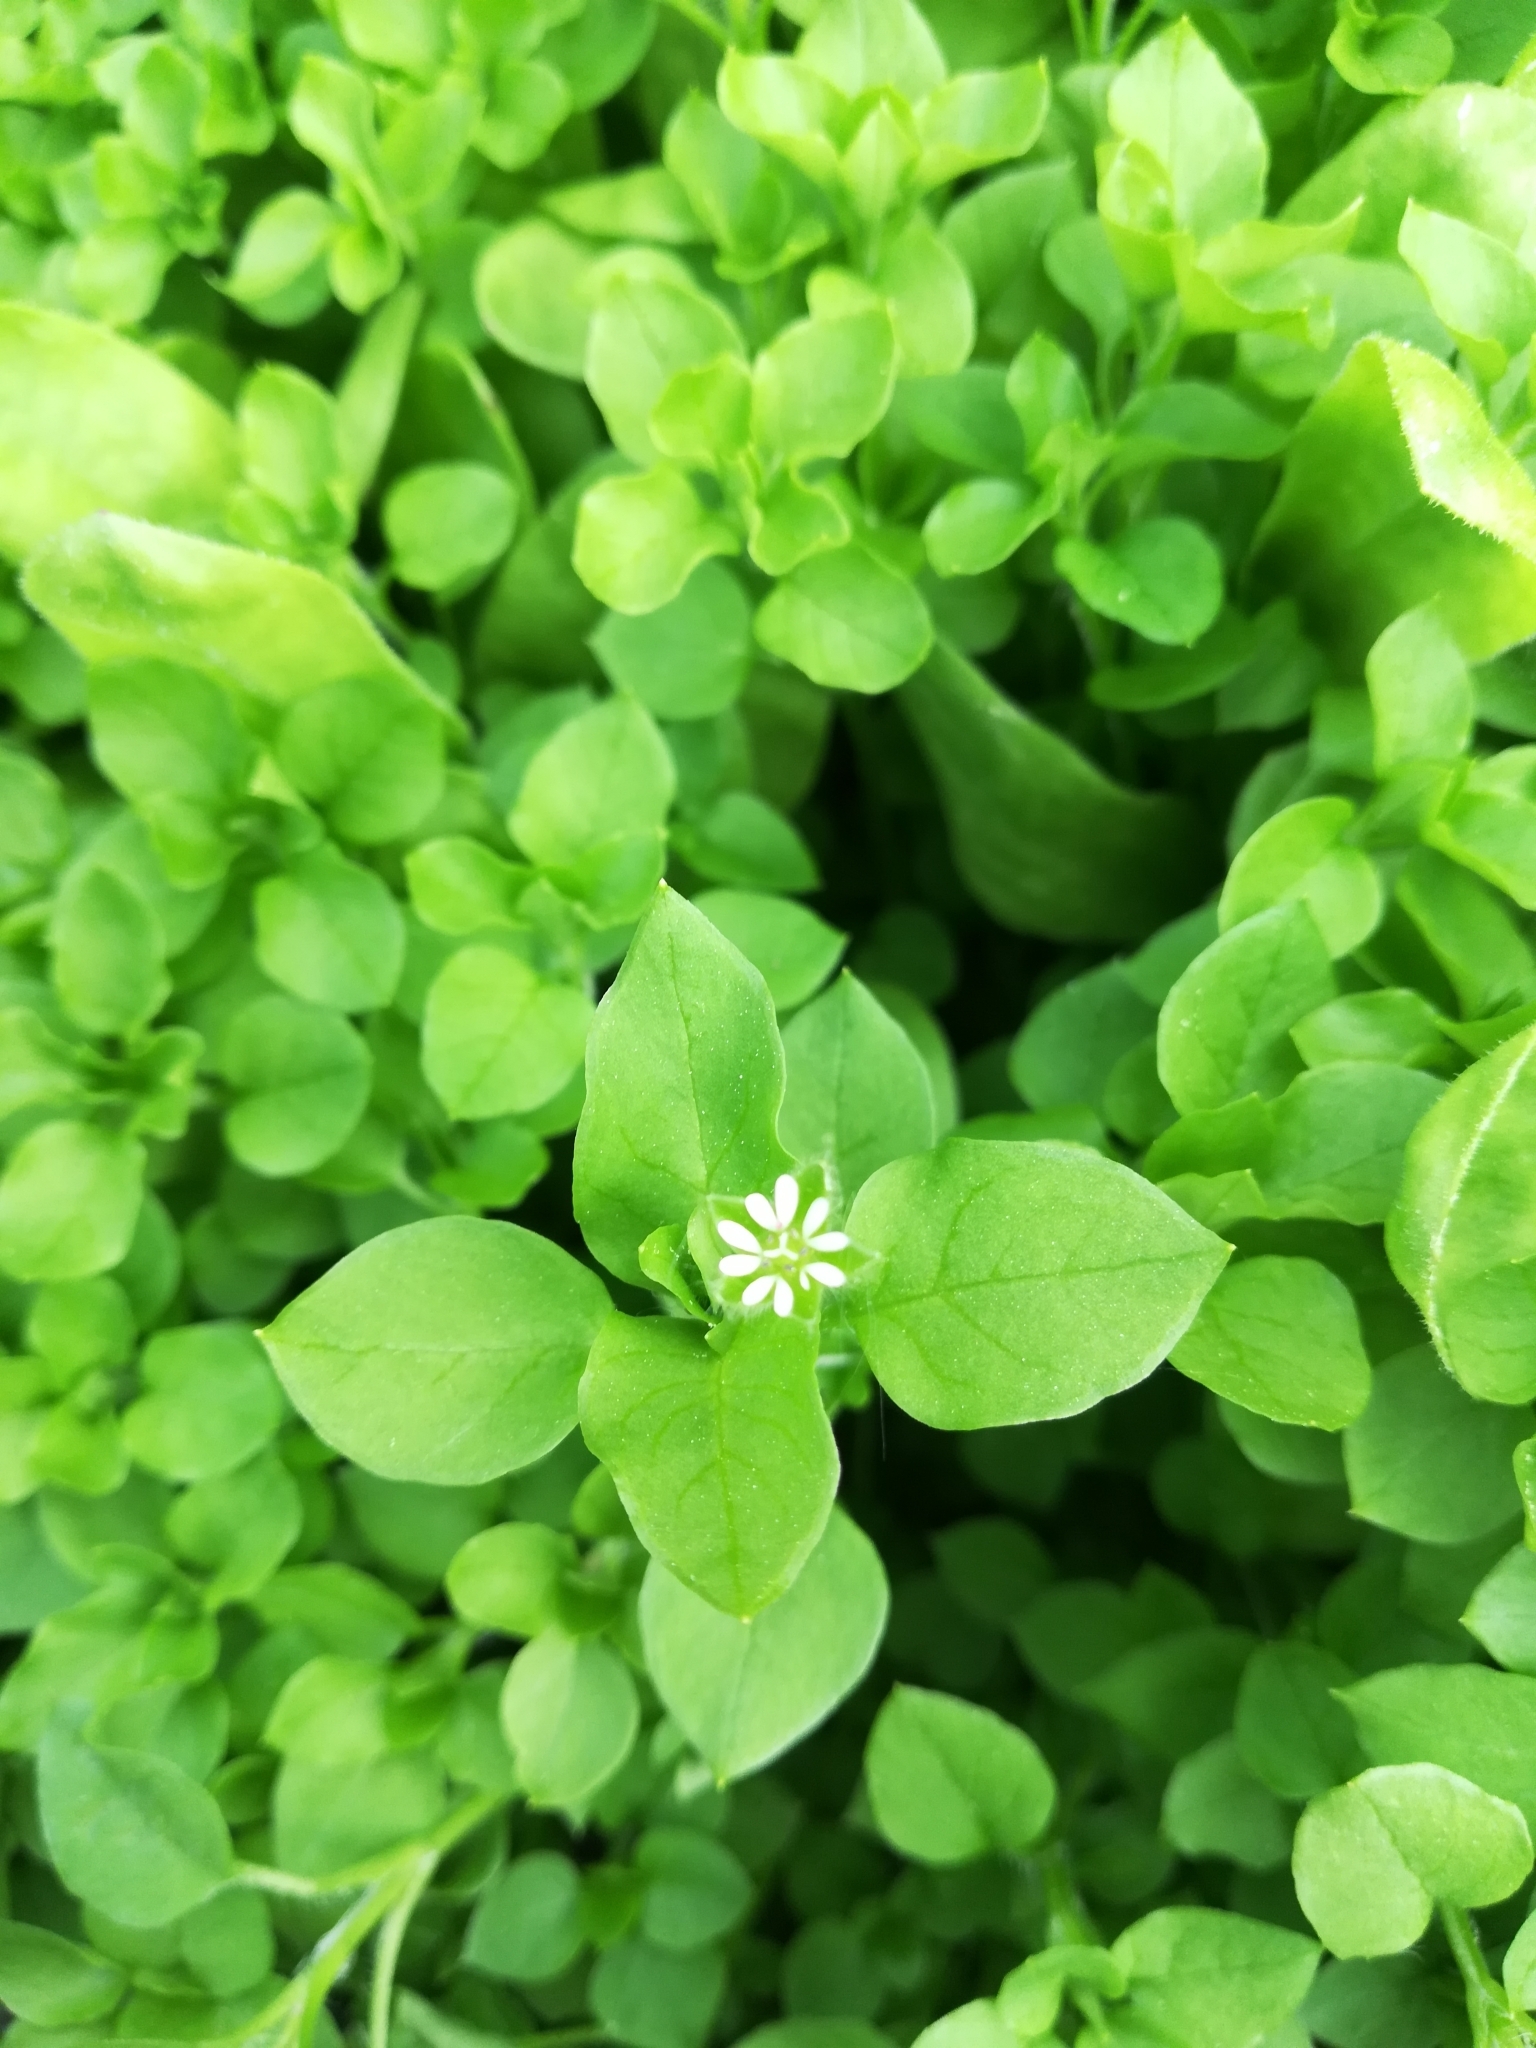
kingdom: Plantae
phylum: Tracheophyta
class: Magnoliopsida
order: Caryophyllales
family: Caryophyllaceae
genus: Stellaria
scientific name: Stellaria media
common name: Common chickweed
